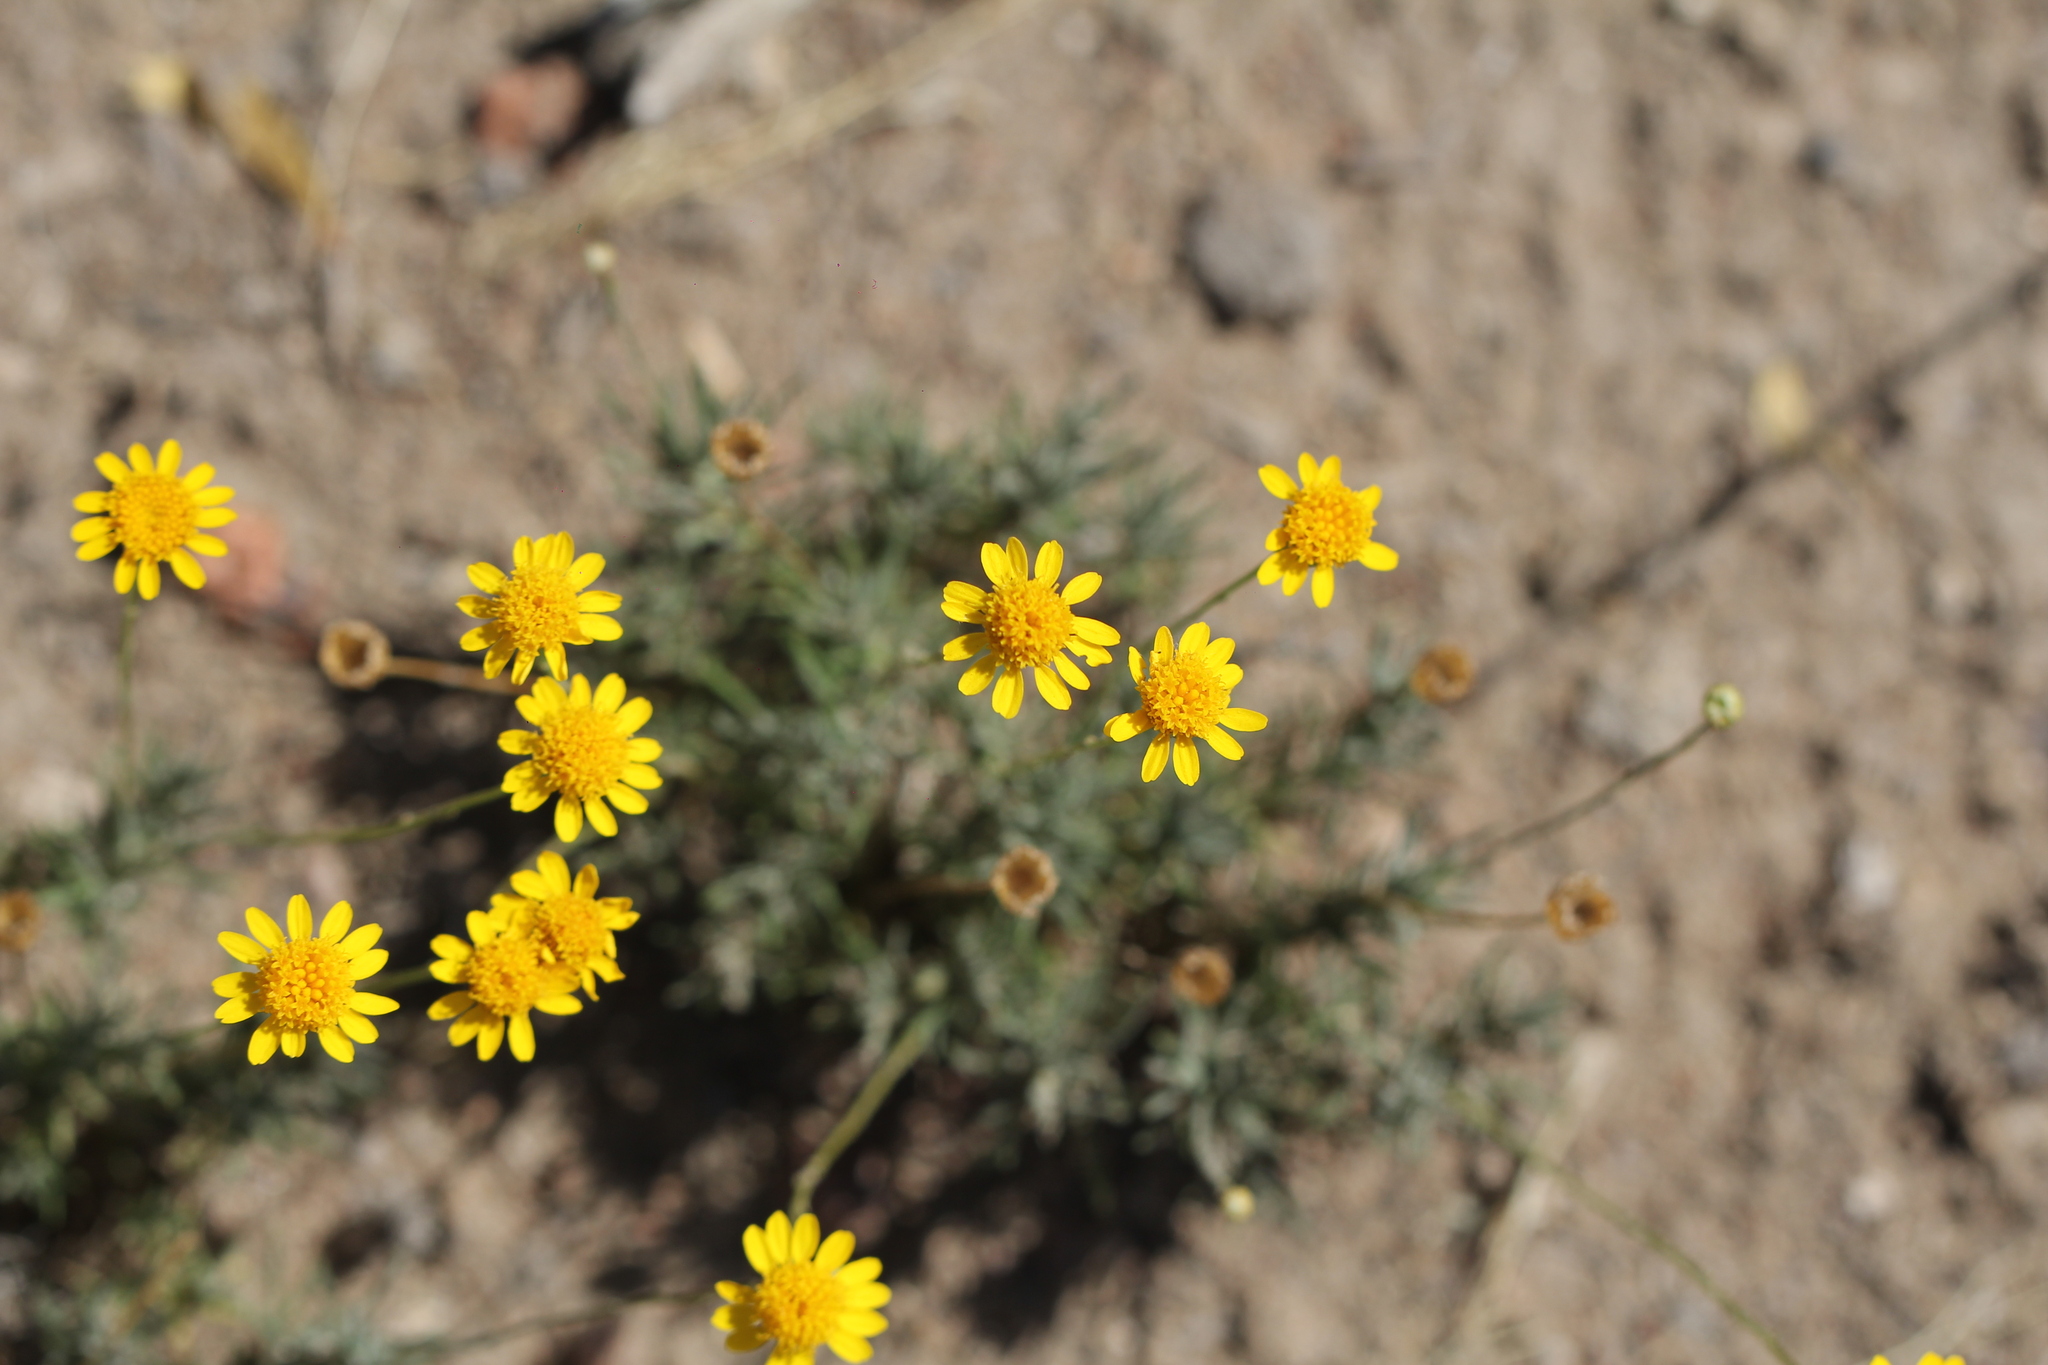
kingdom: Plantae
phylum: Tracheophyta
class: Magnoliopsida
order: Asterales
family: Asteraceae
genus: Thymophylla
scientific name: Thymophylla pentachaeta
